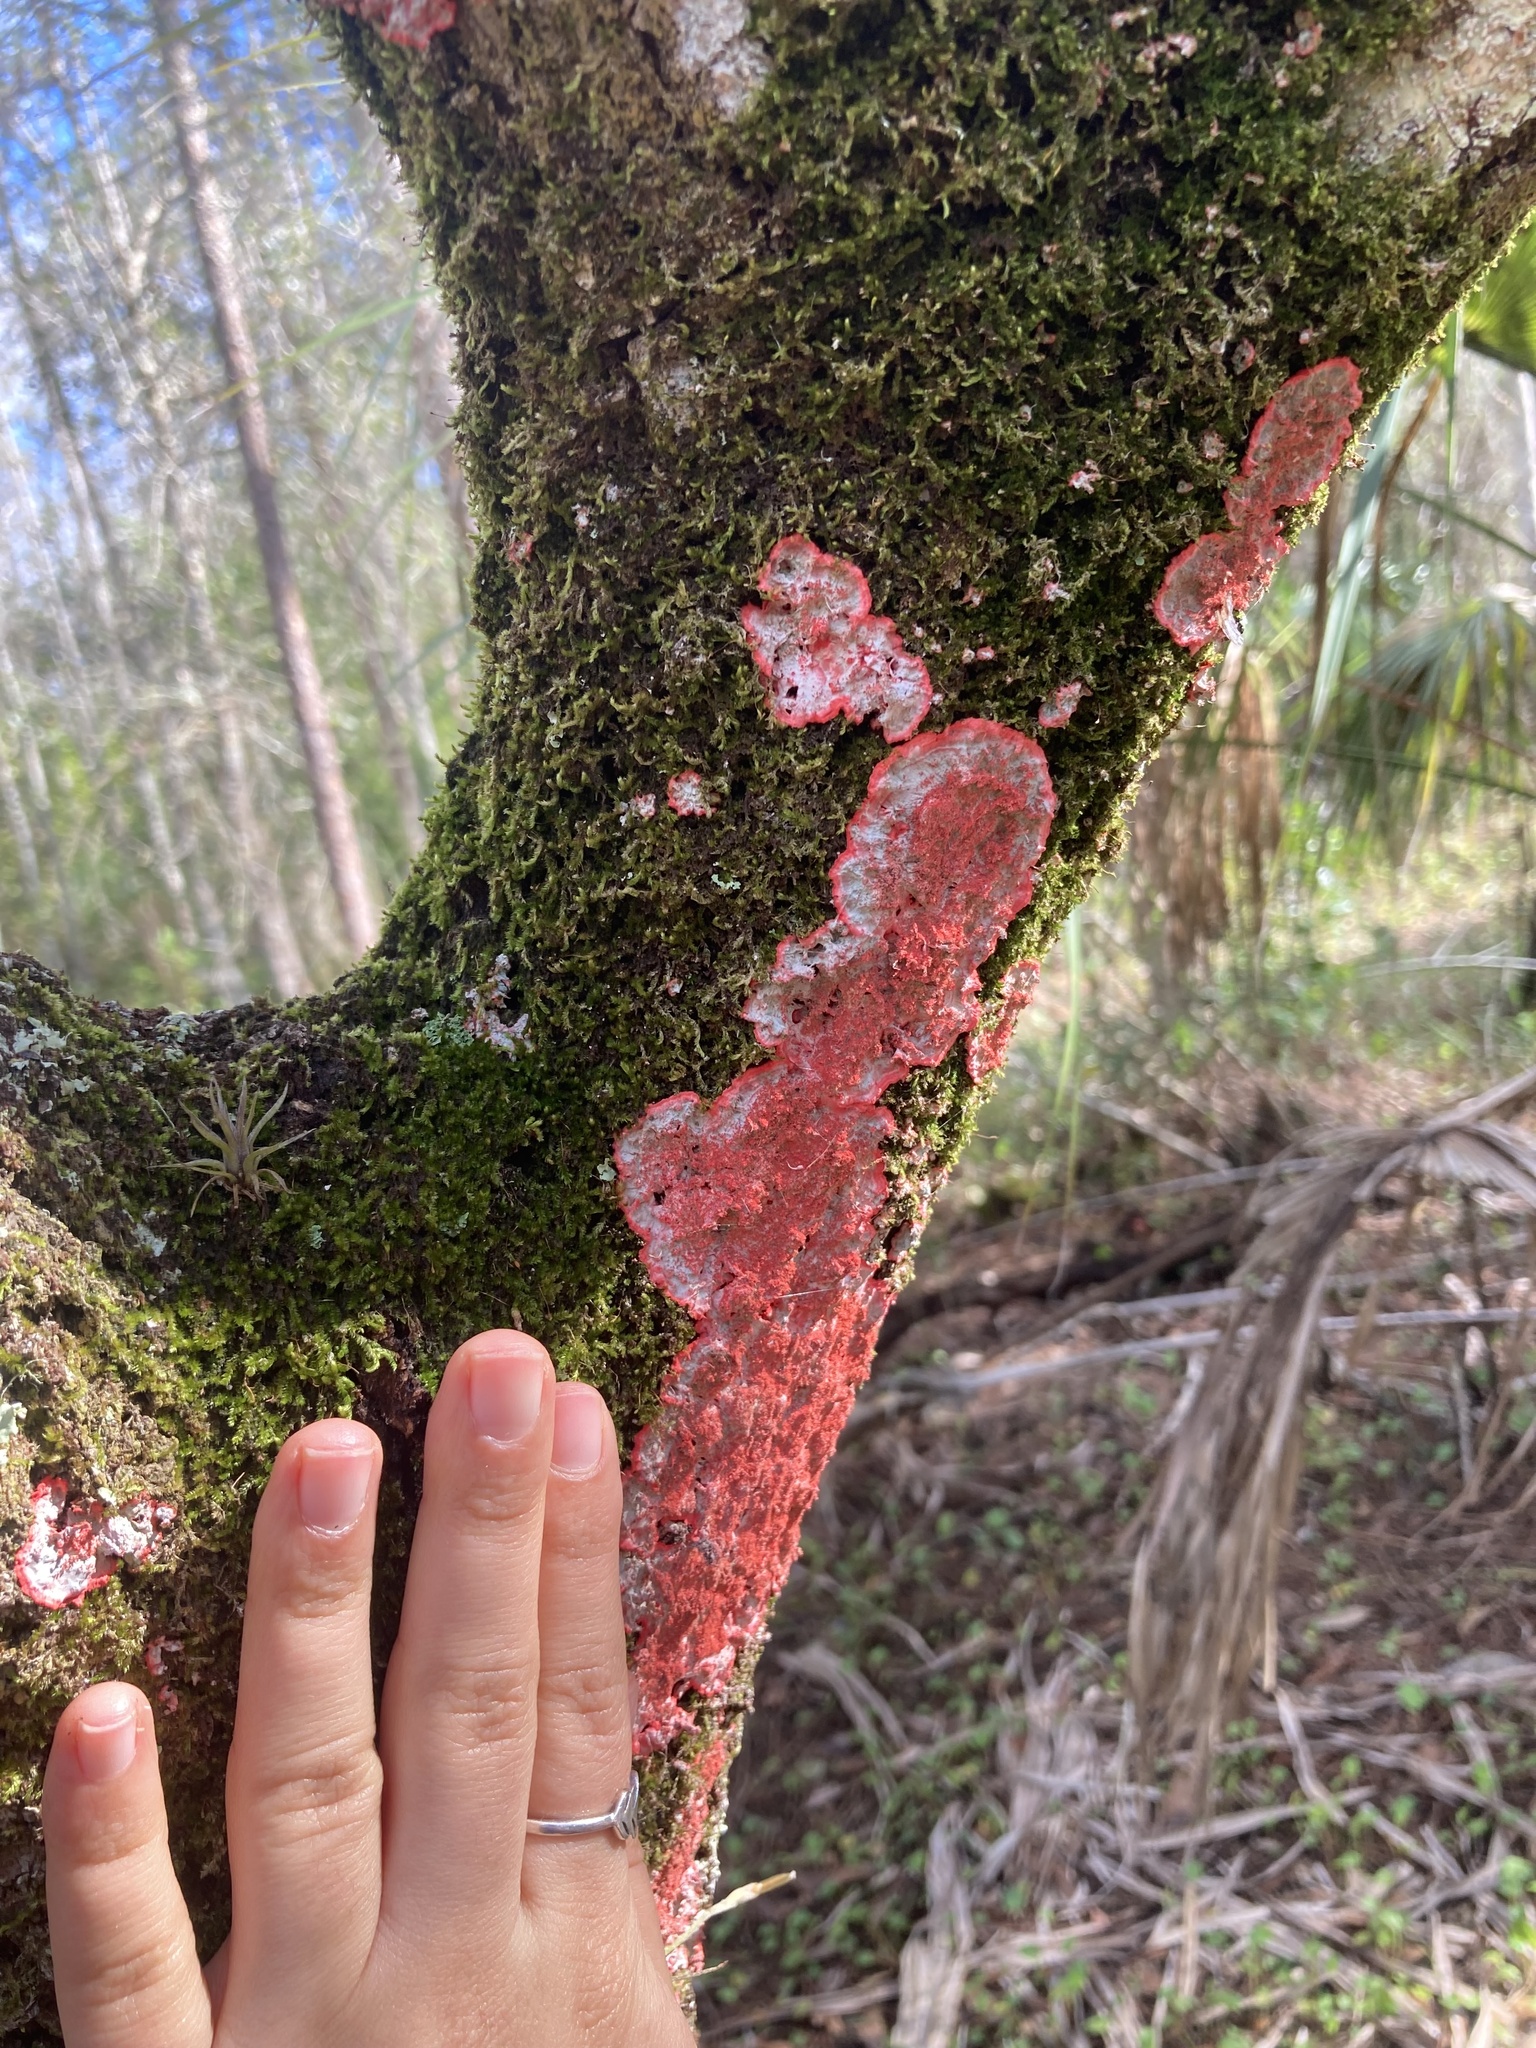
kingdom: Fungi
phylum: Ascomycota
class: Arthoniomycetes
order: Arthoniales
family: Arthoniaceae
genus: Herpothallon
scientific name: Herpothallon rubrocinctum
